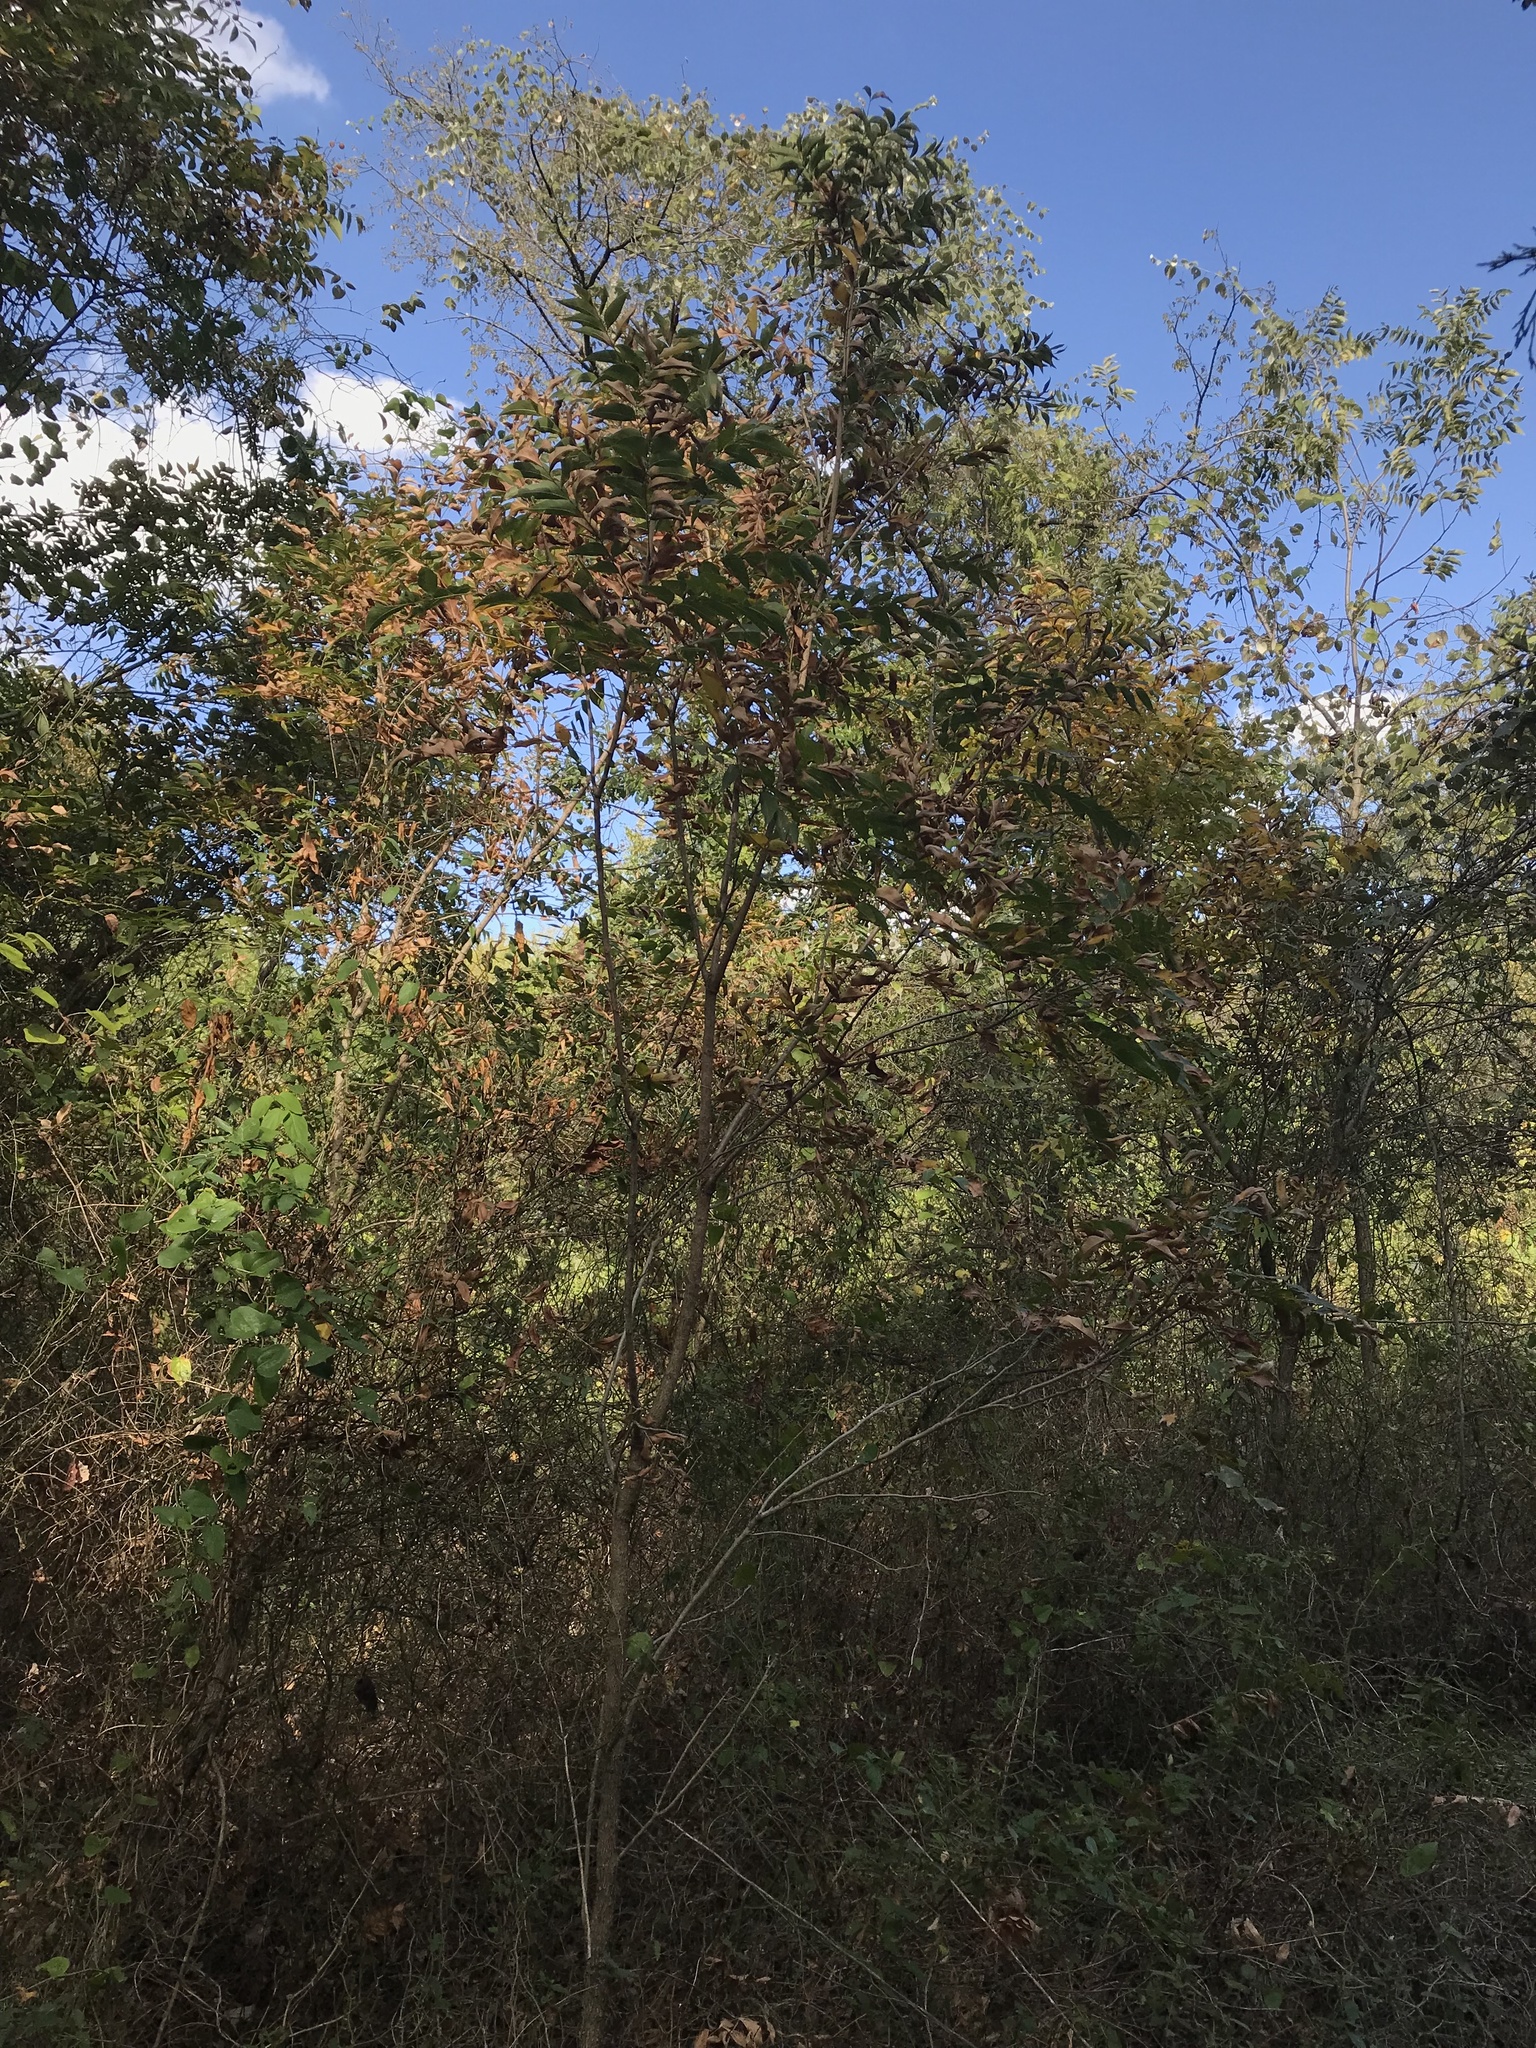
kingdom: Plantae
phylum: Tracheophyta
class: Magnoliopsida
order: Sapindales
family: Sapindaceae
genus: Sapindus
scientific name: Sapindus drummondii
